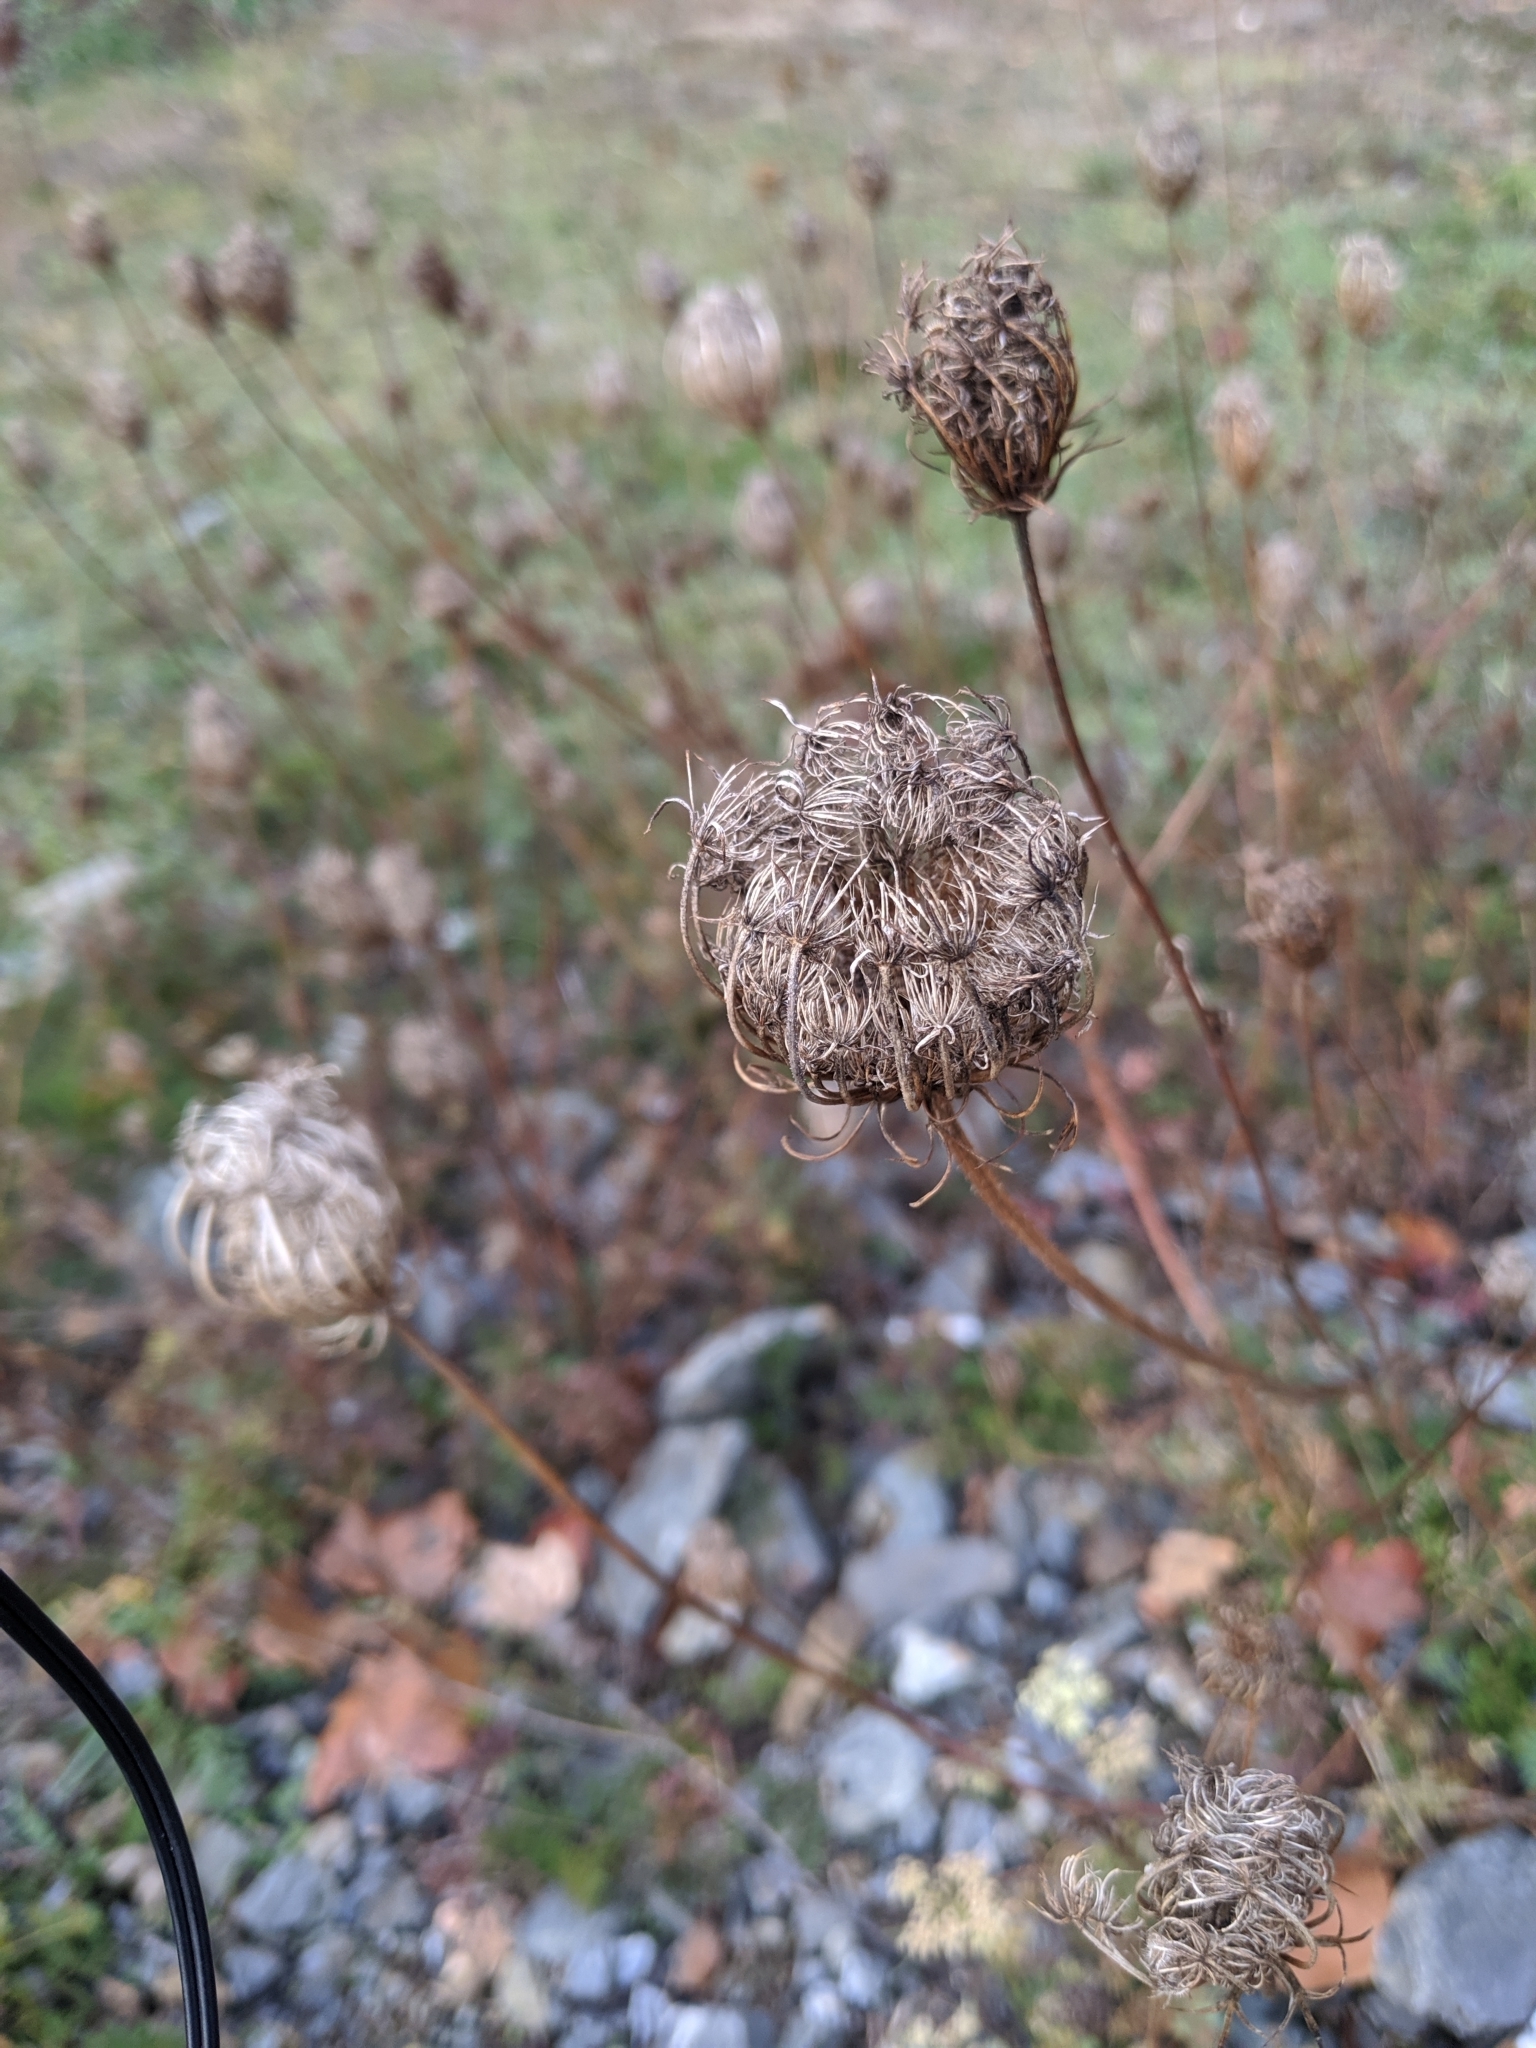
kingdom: Plantae
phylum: Tracheophyta
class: Magnoliopsida
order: Apiales
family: Apiaceae
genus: Daucus
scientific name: Daucus carota
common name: Wild carrot
